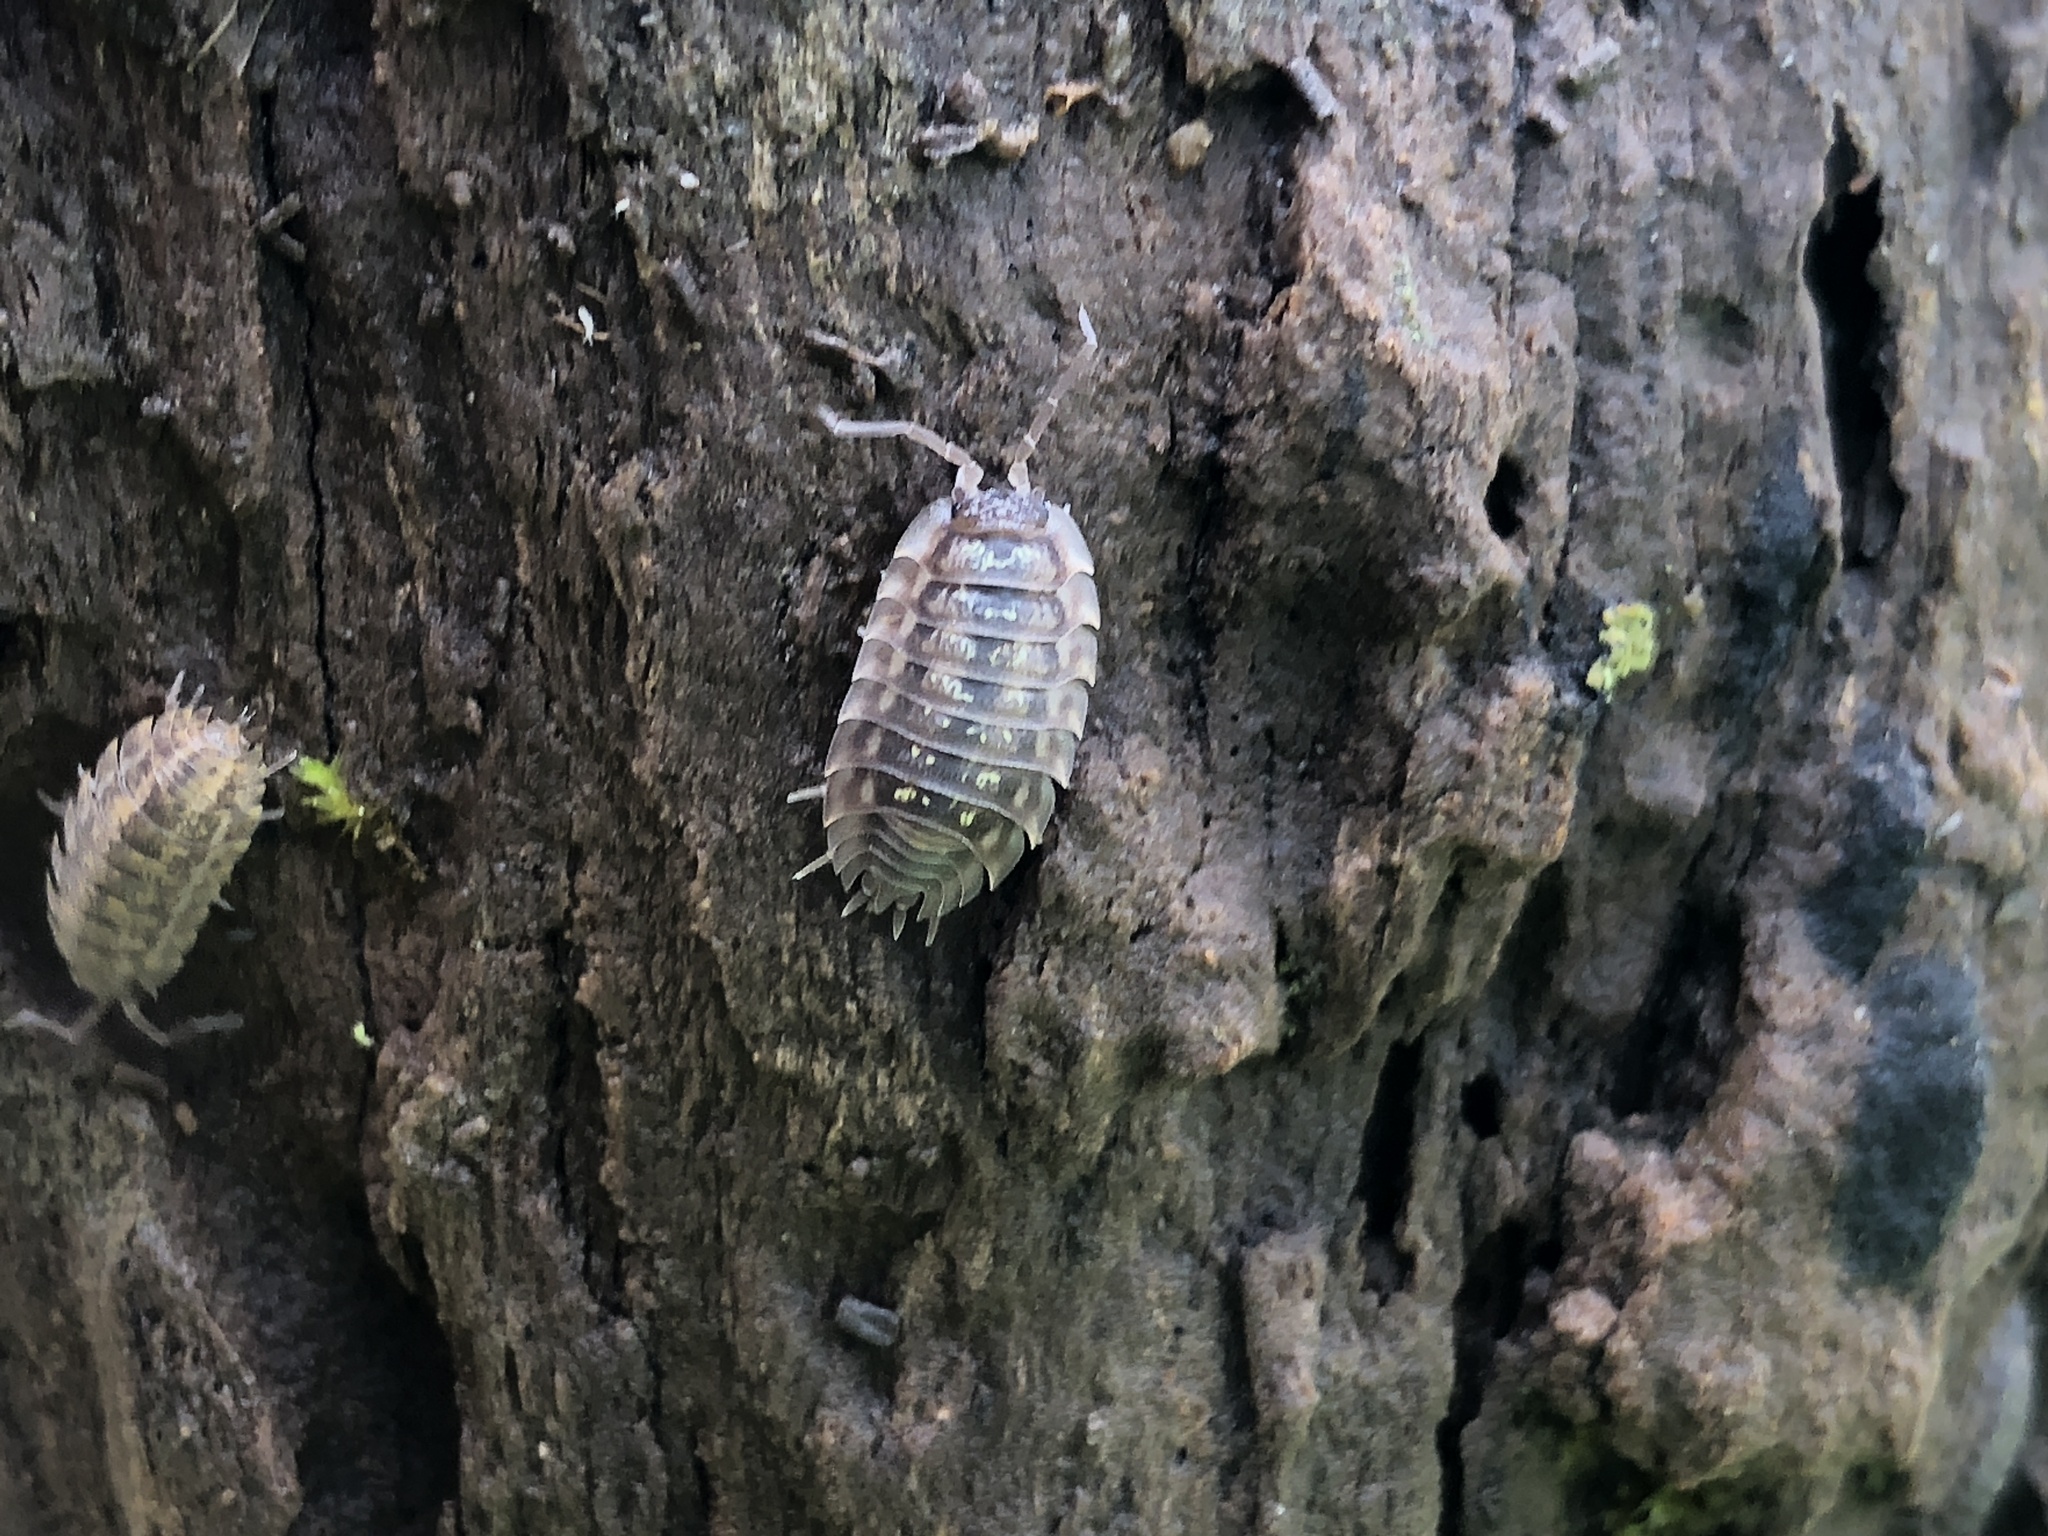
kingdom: Animalia
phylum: Arthropoda
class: Malacostraca
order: Isopoda
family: Oniscidae
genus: Oniscus
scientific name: Oniscus asellus
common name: Common shiny woodlouse
